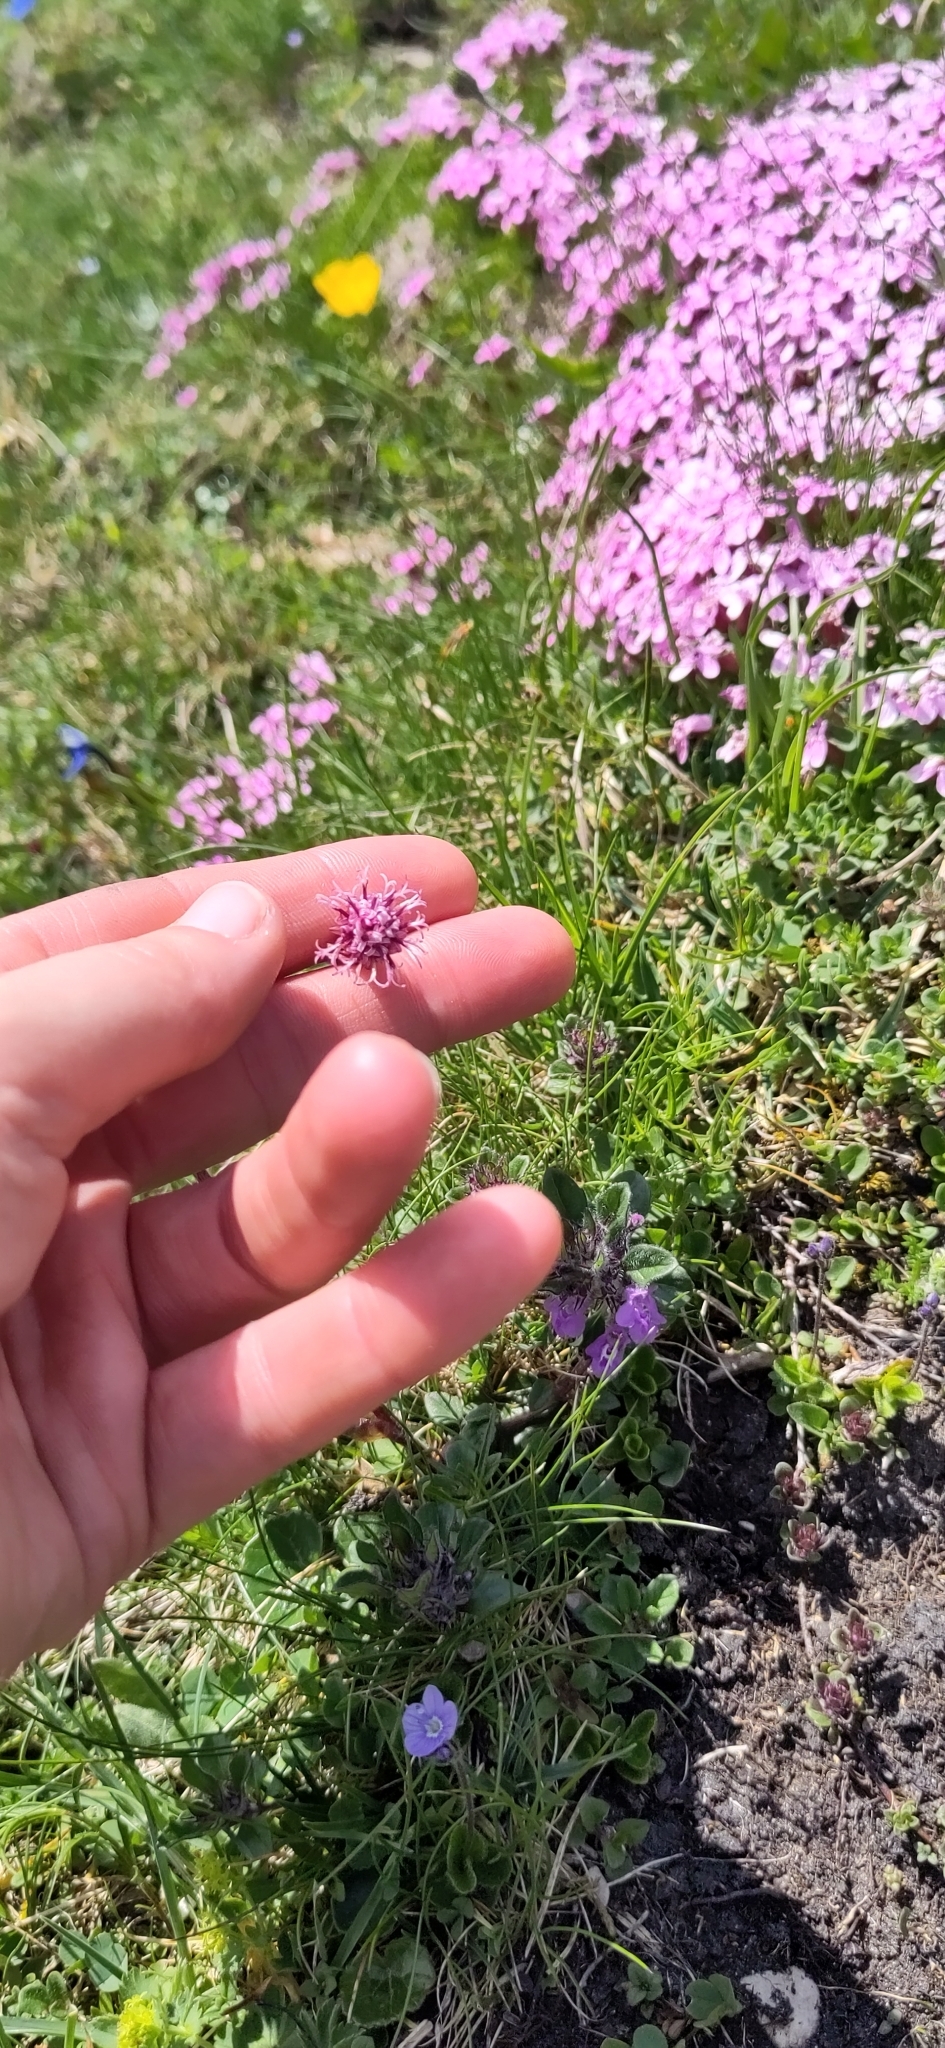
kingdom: Plantae
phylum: Tracheophyta
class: Magnoliopsida
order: Asterales
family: Asteraceae
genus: Homogyne
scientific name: Homogyne alpina
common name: Purple colt's-foot
